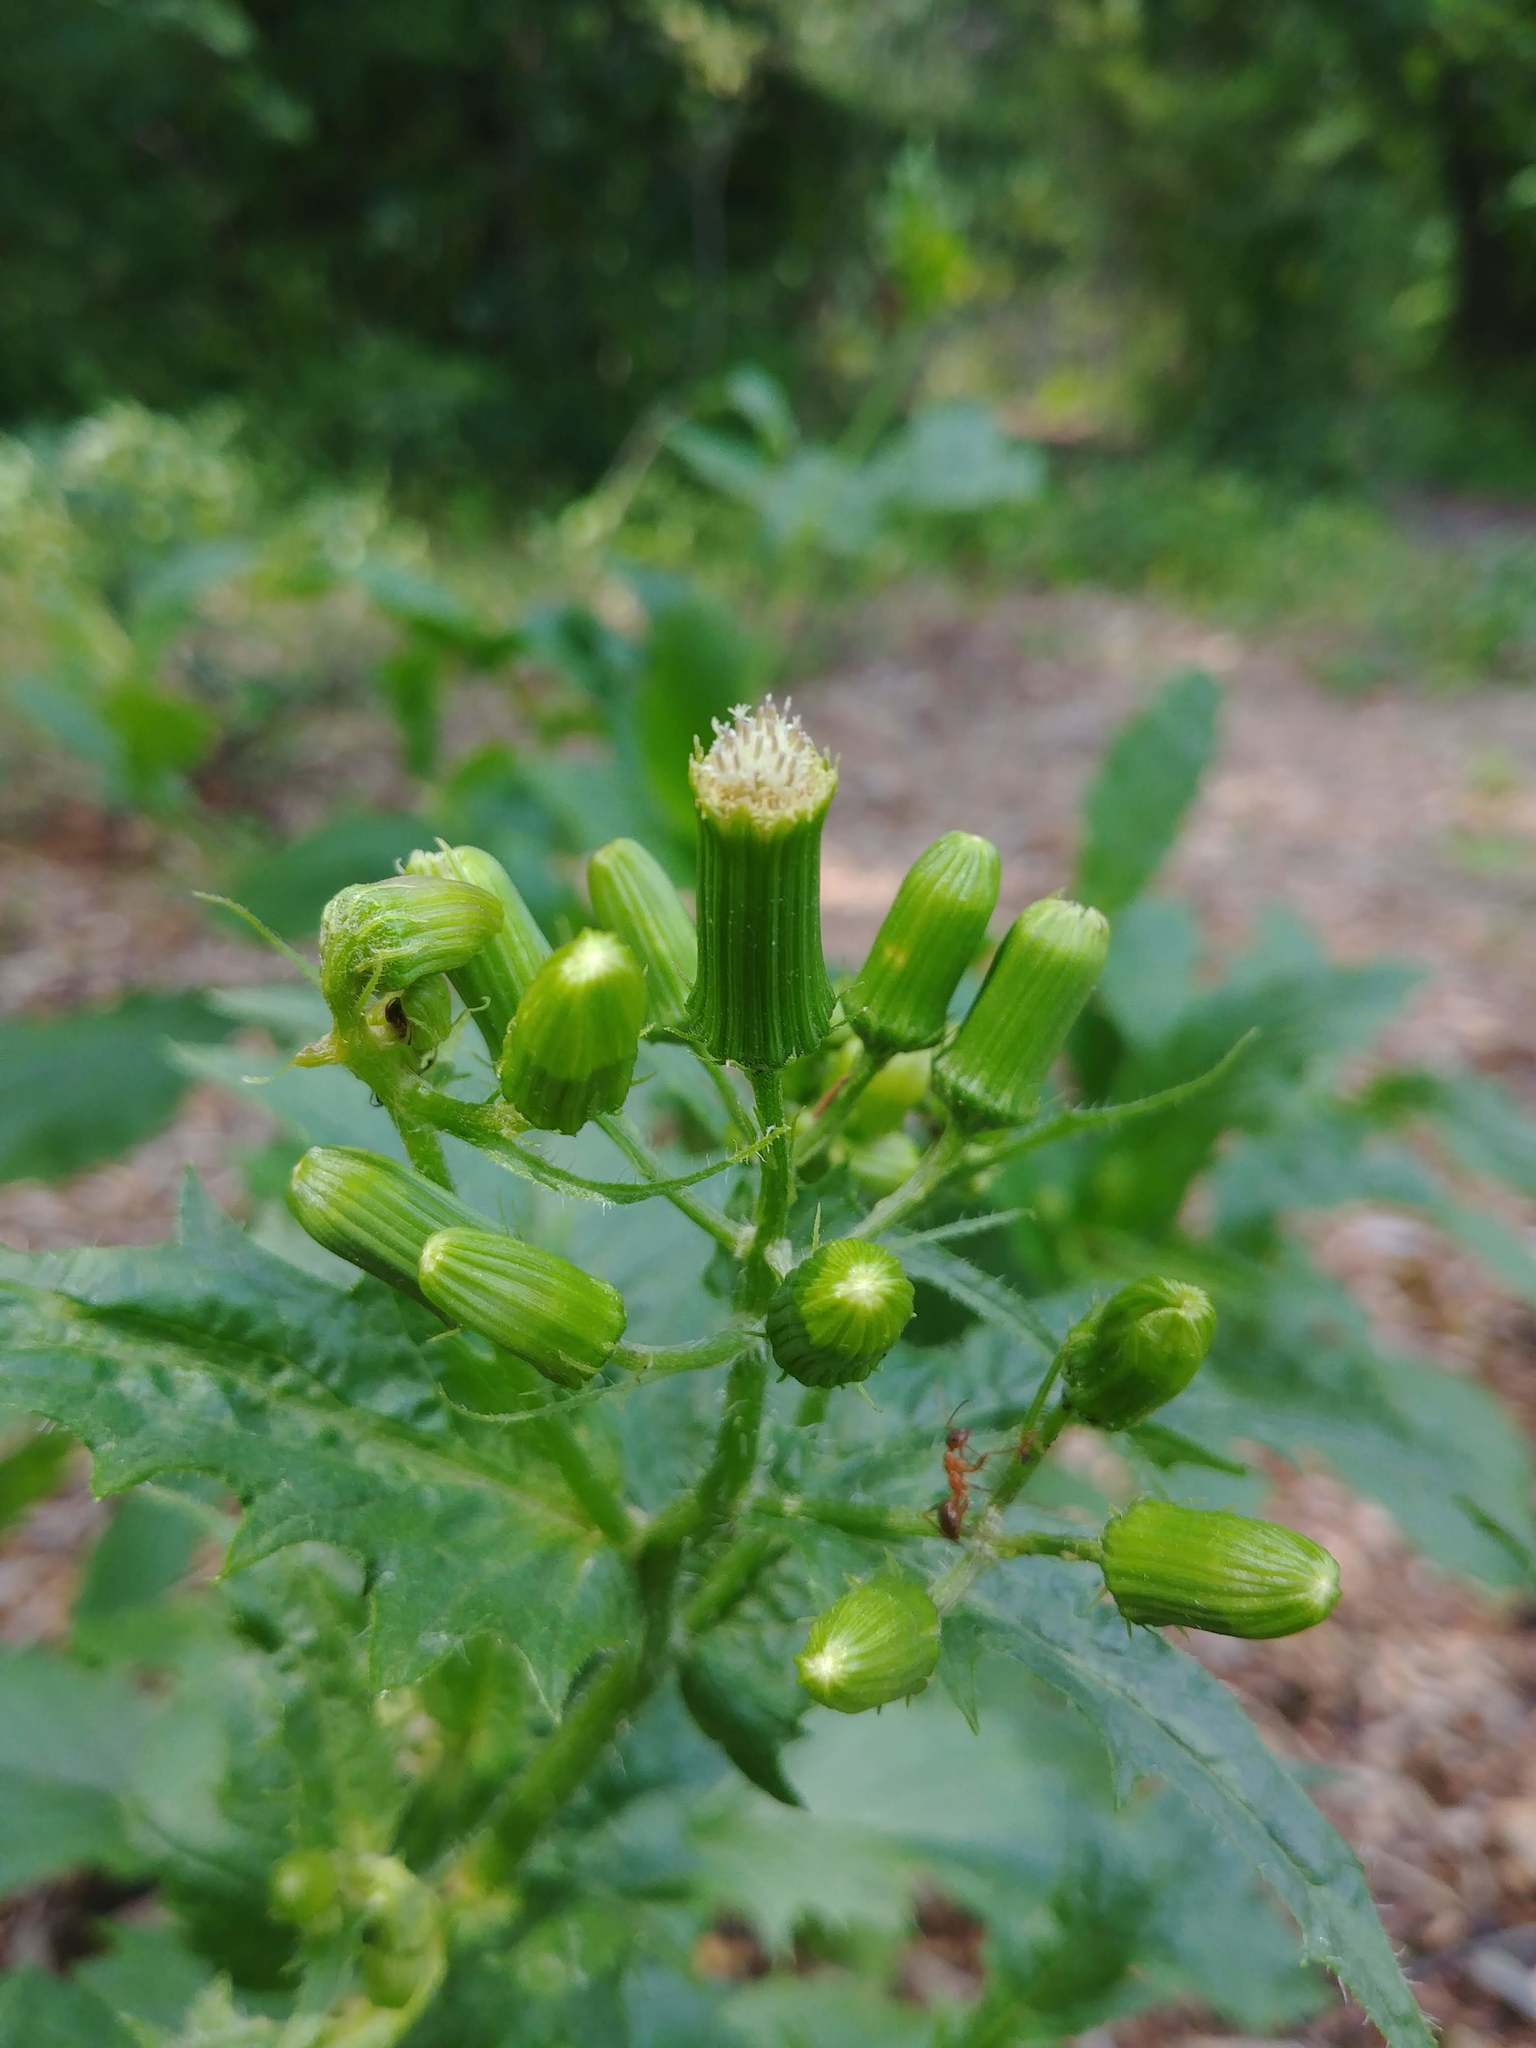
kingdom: Plantae
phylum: Tracheophyta
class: Magnoliopsida
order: Asterales
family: Asteraceae
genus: Erechtites
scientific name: Erechtites hieraciifolius
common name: American burnweed
